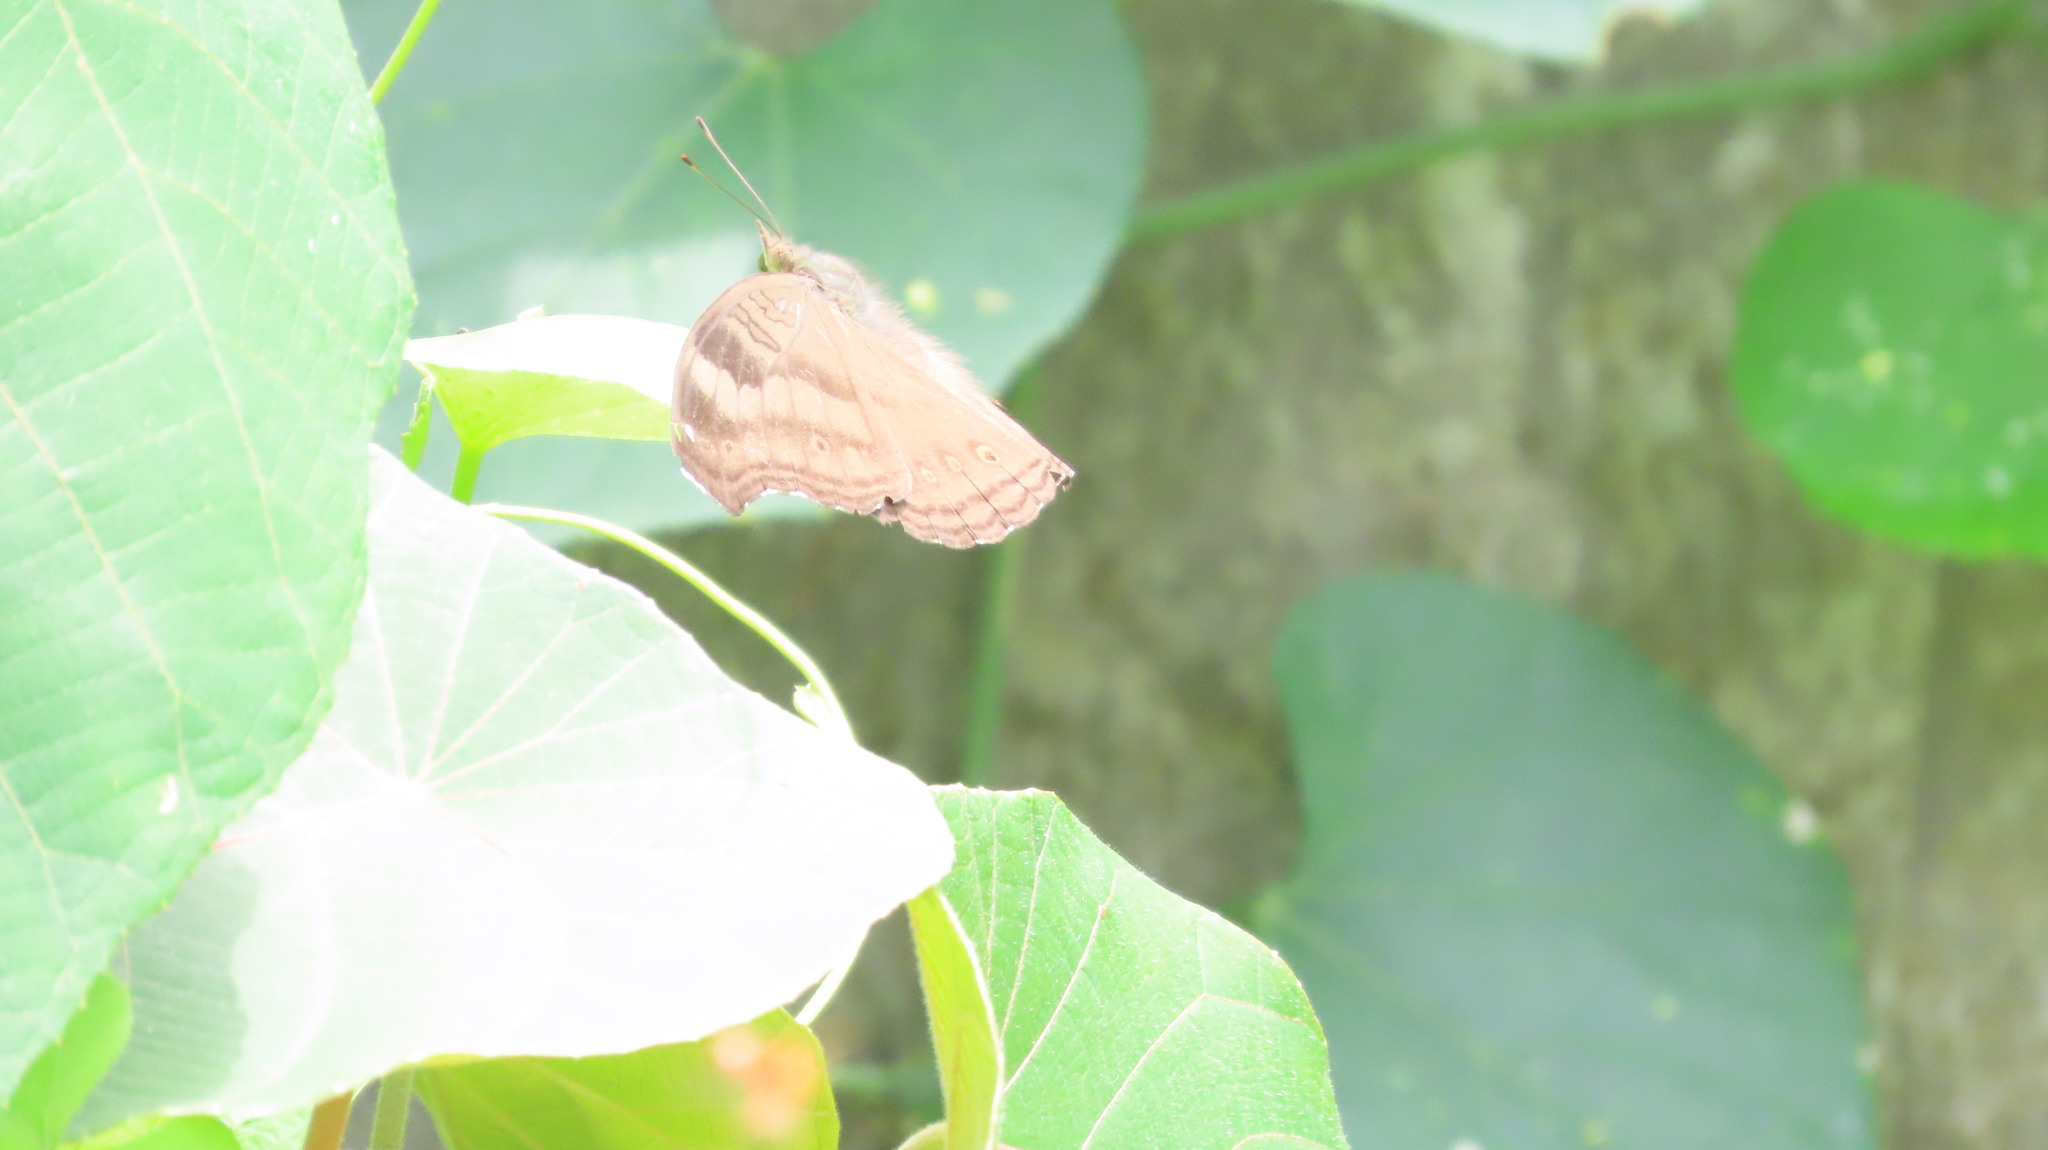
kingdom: Animalia
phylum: Arthropoda
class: Insecta
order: Lepidoptera
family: Nymphalidae
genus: Junonia
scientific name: Junonia iphita
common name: Chocolate pansy
